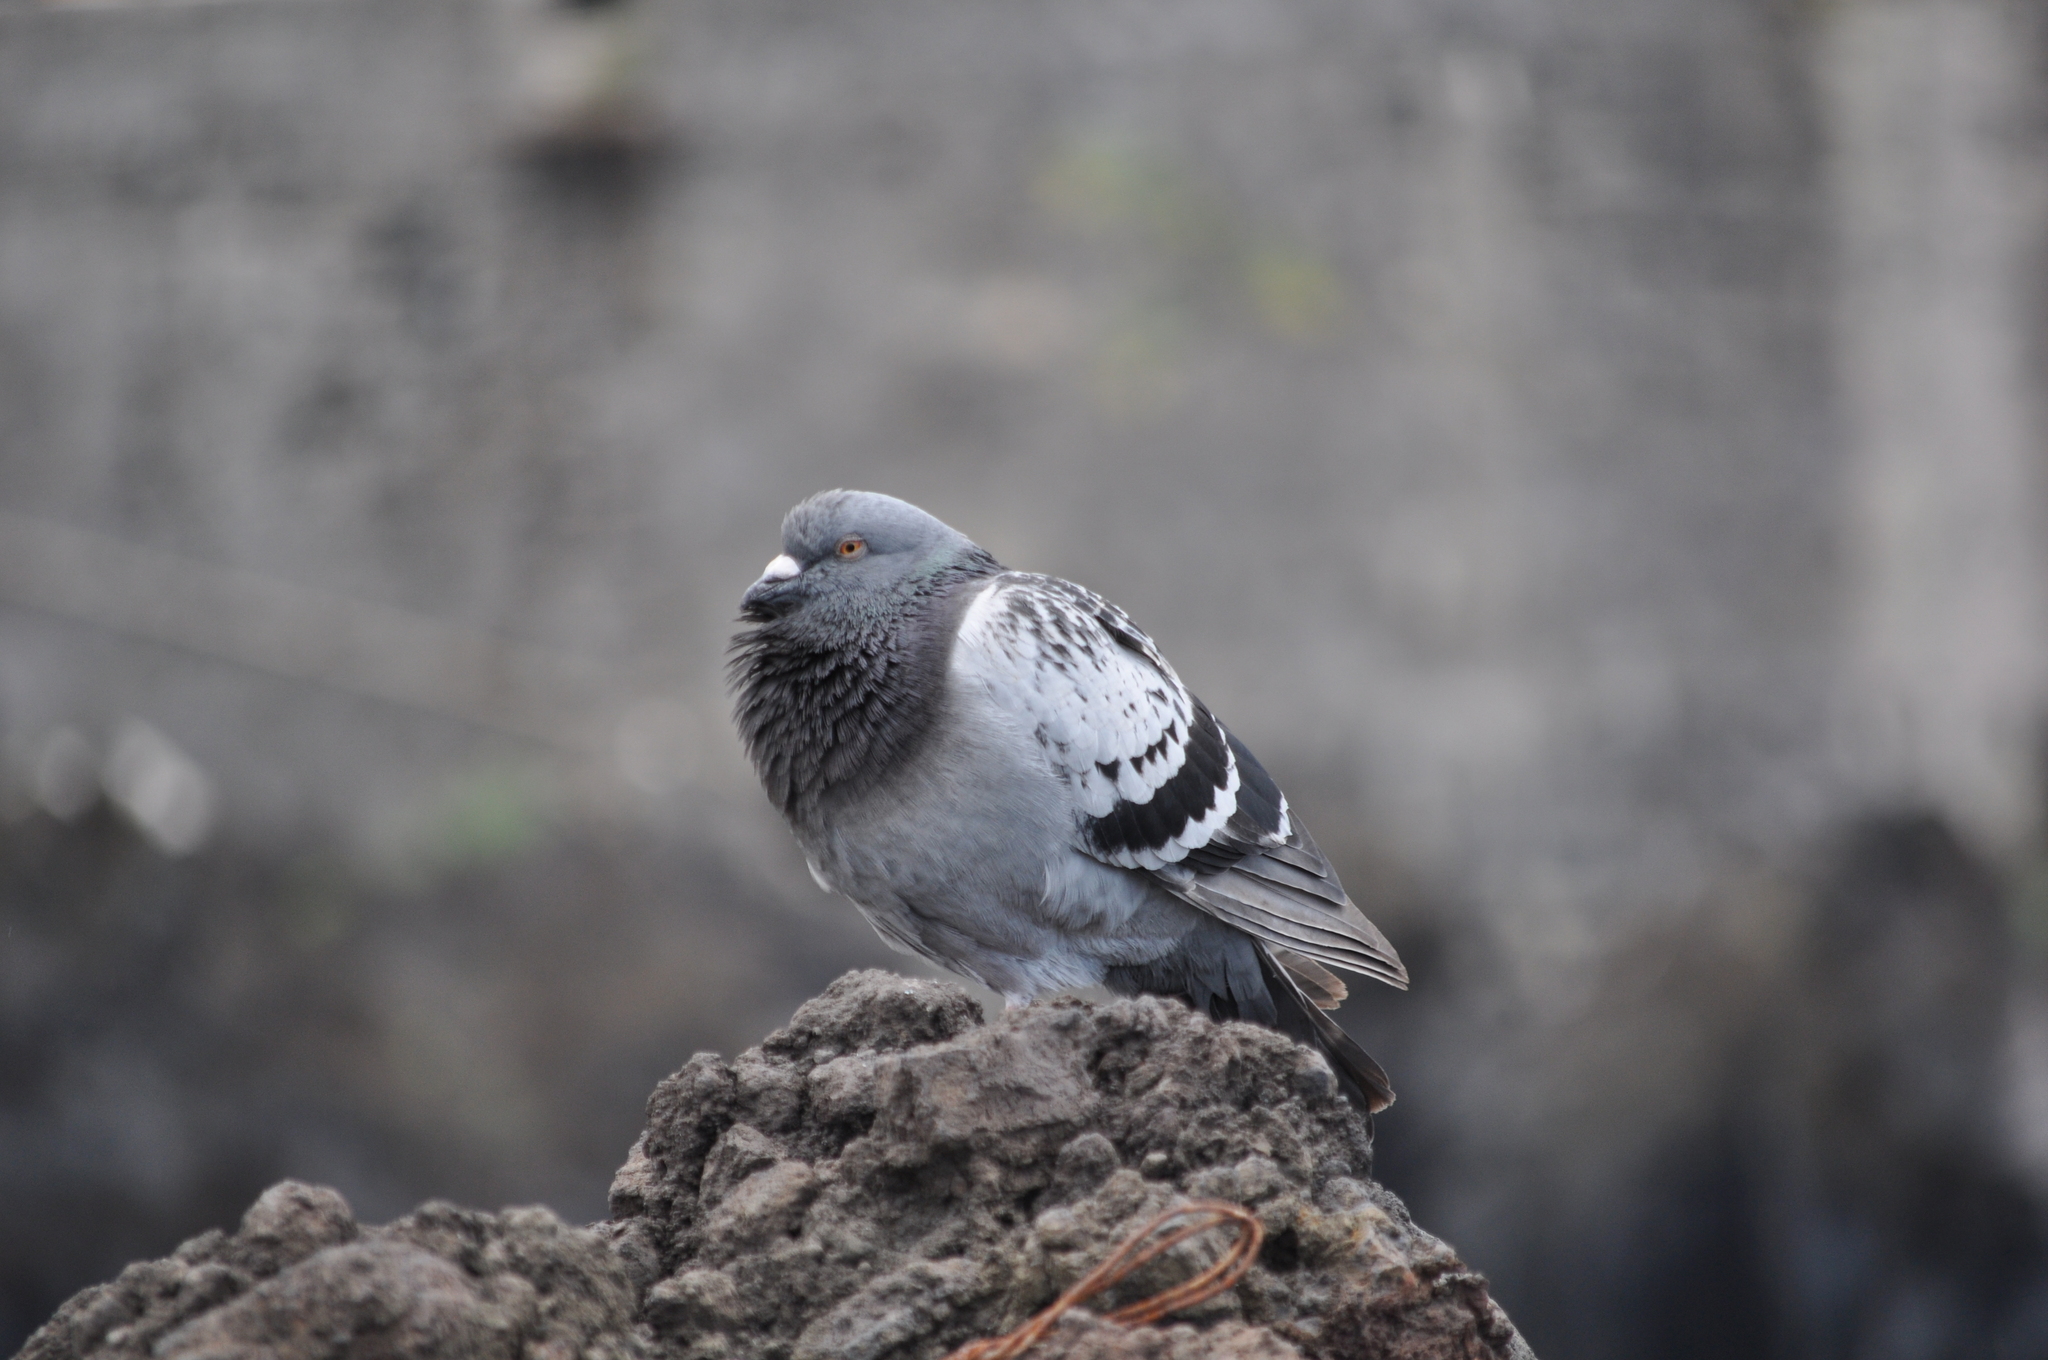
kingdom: Animalia
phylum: Chordata
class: Aves
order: Columbiformes
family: Columbidae
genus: Columba
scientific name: Columba livia
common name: Rock pigeon
